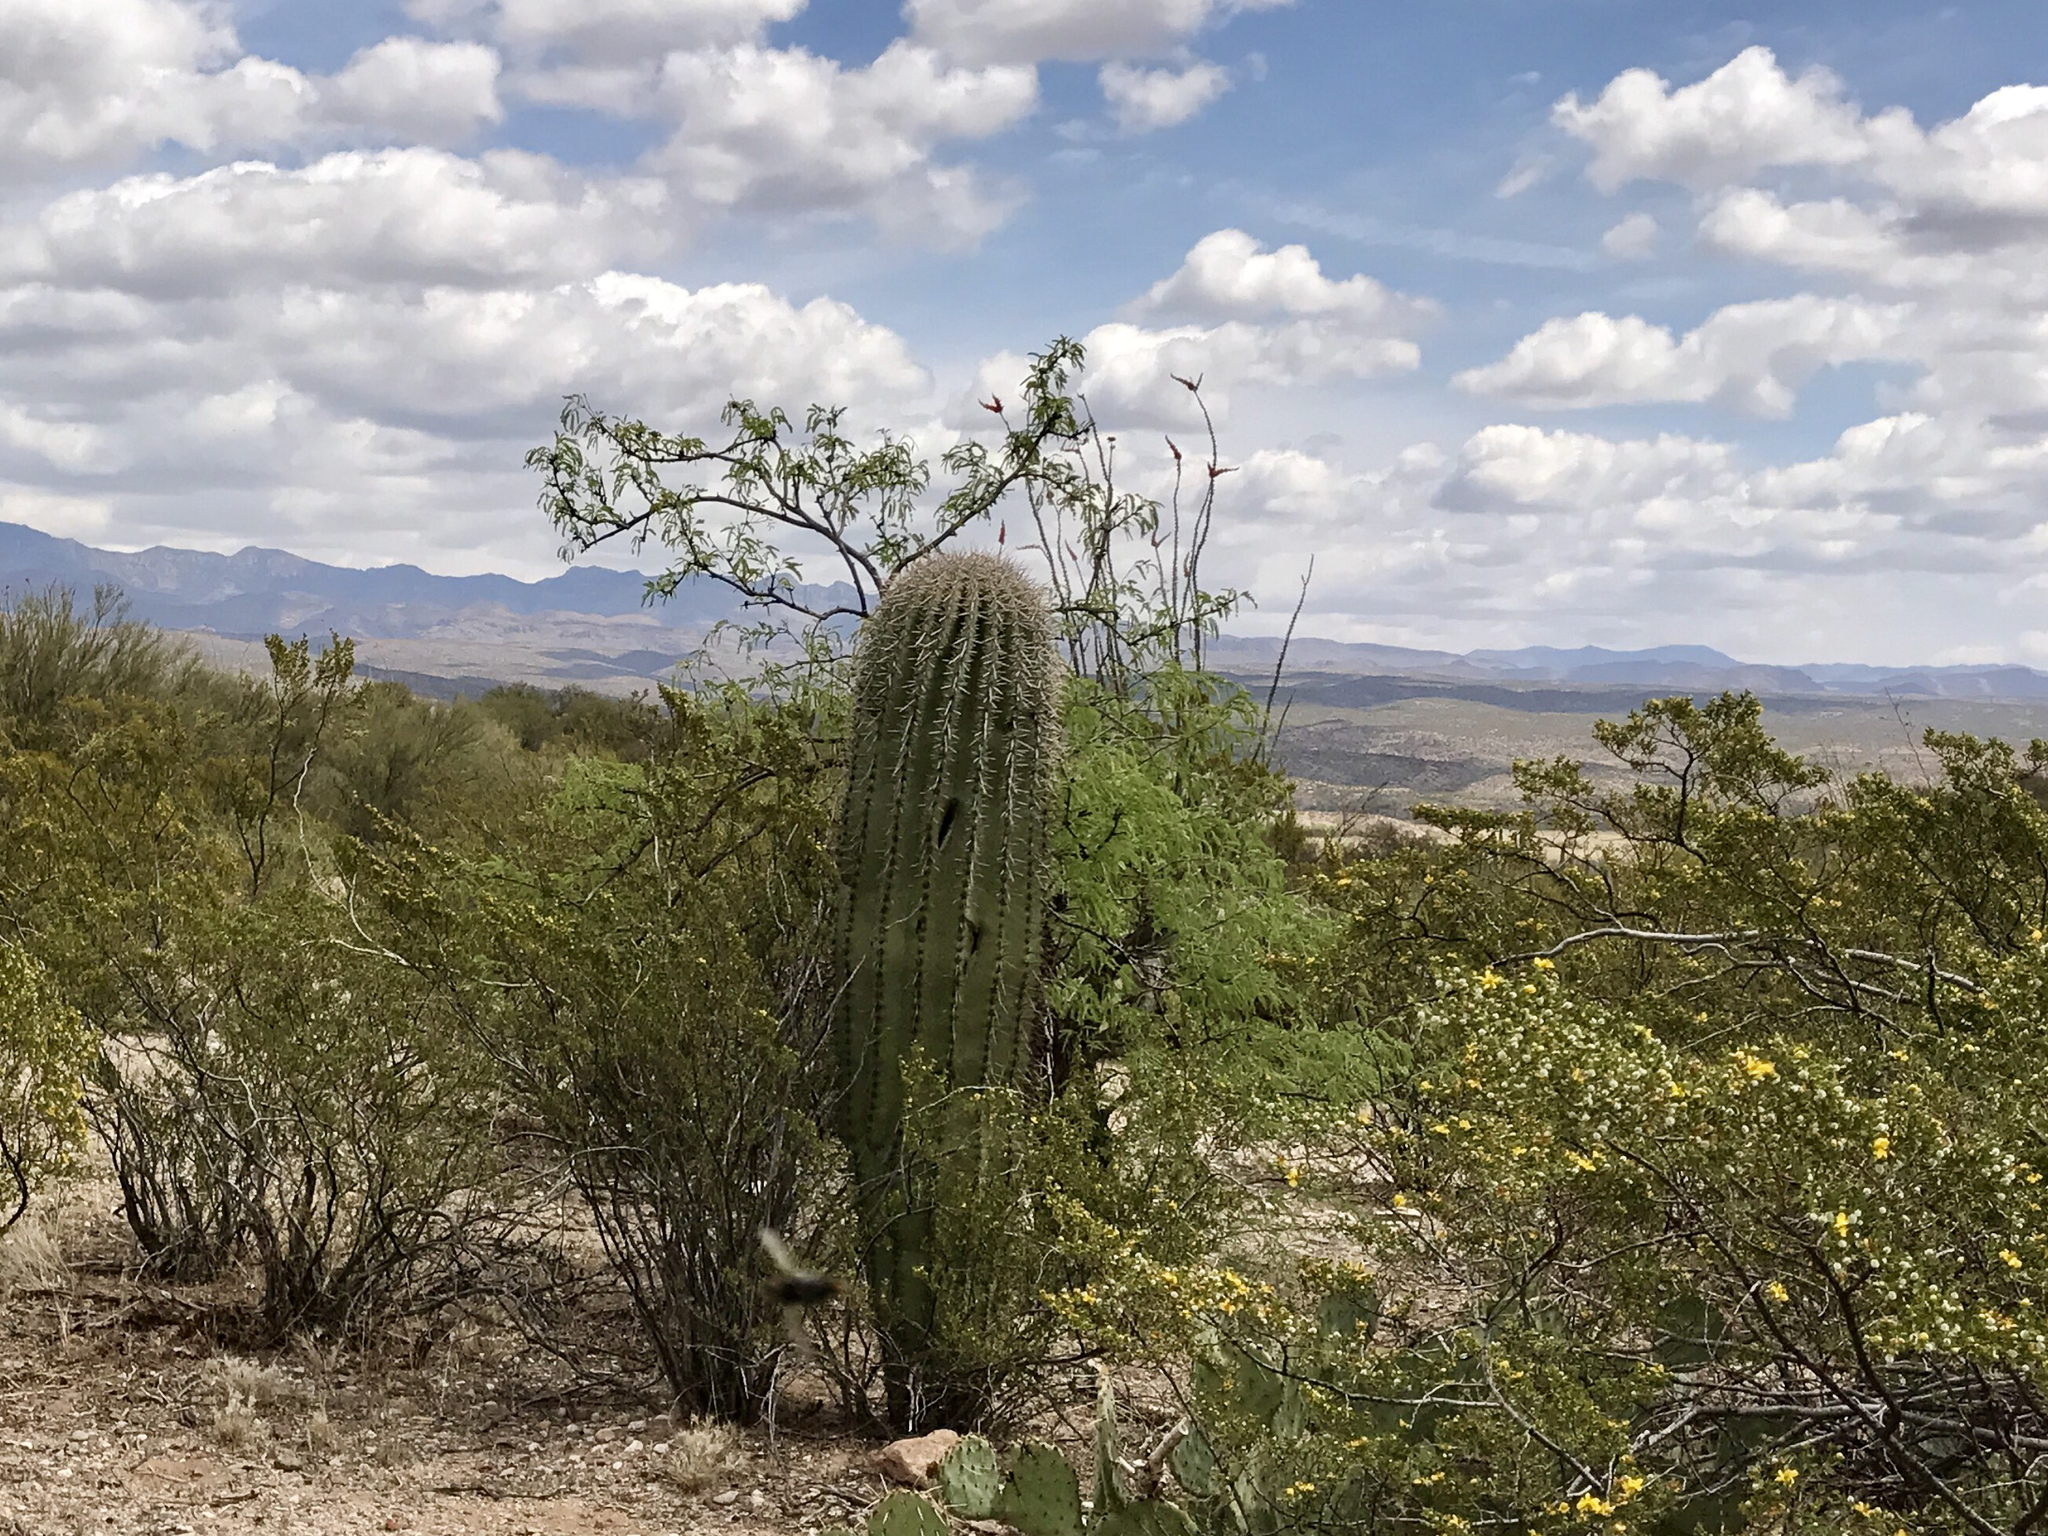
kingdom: Plantae
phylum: Tracheophyta
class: Magnoliopsida
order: Caryophyllales
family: Cactaceae
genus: Carnegiea
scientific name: Carnegiea gigantea
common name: Saguaro
